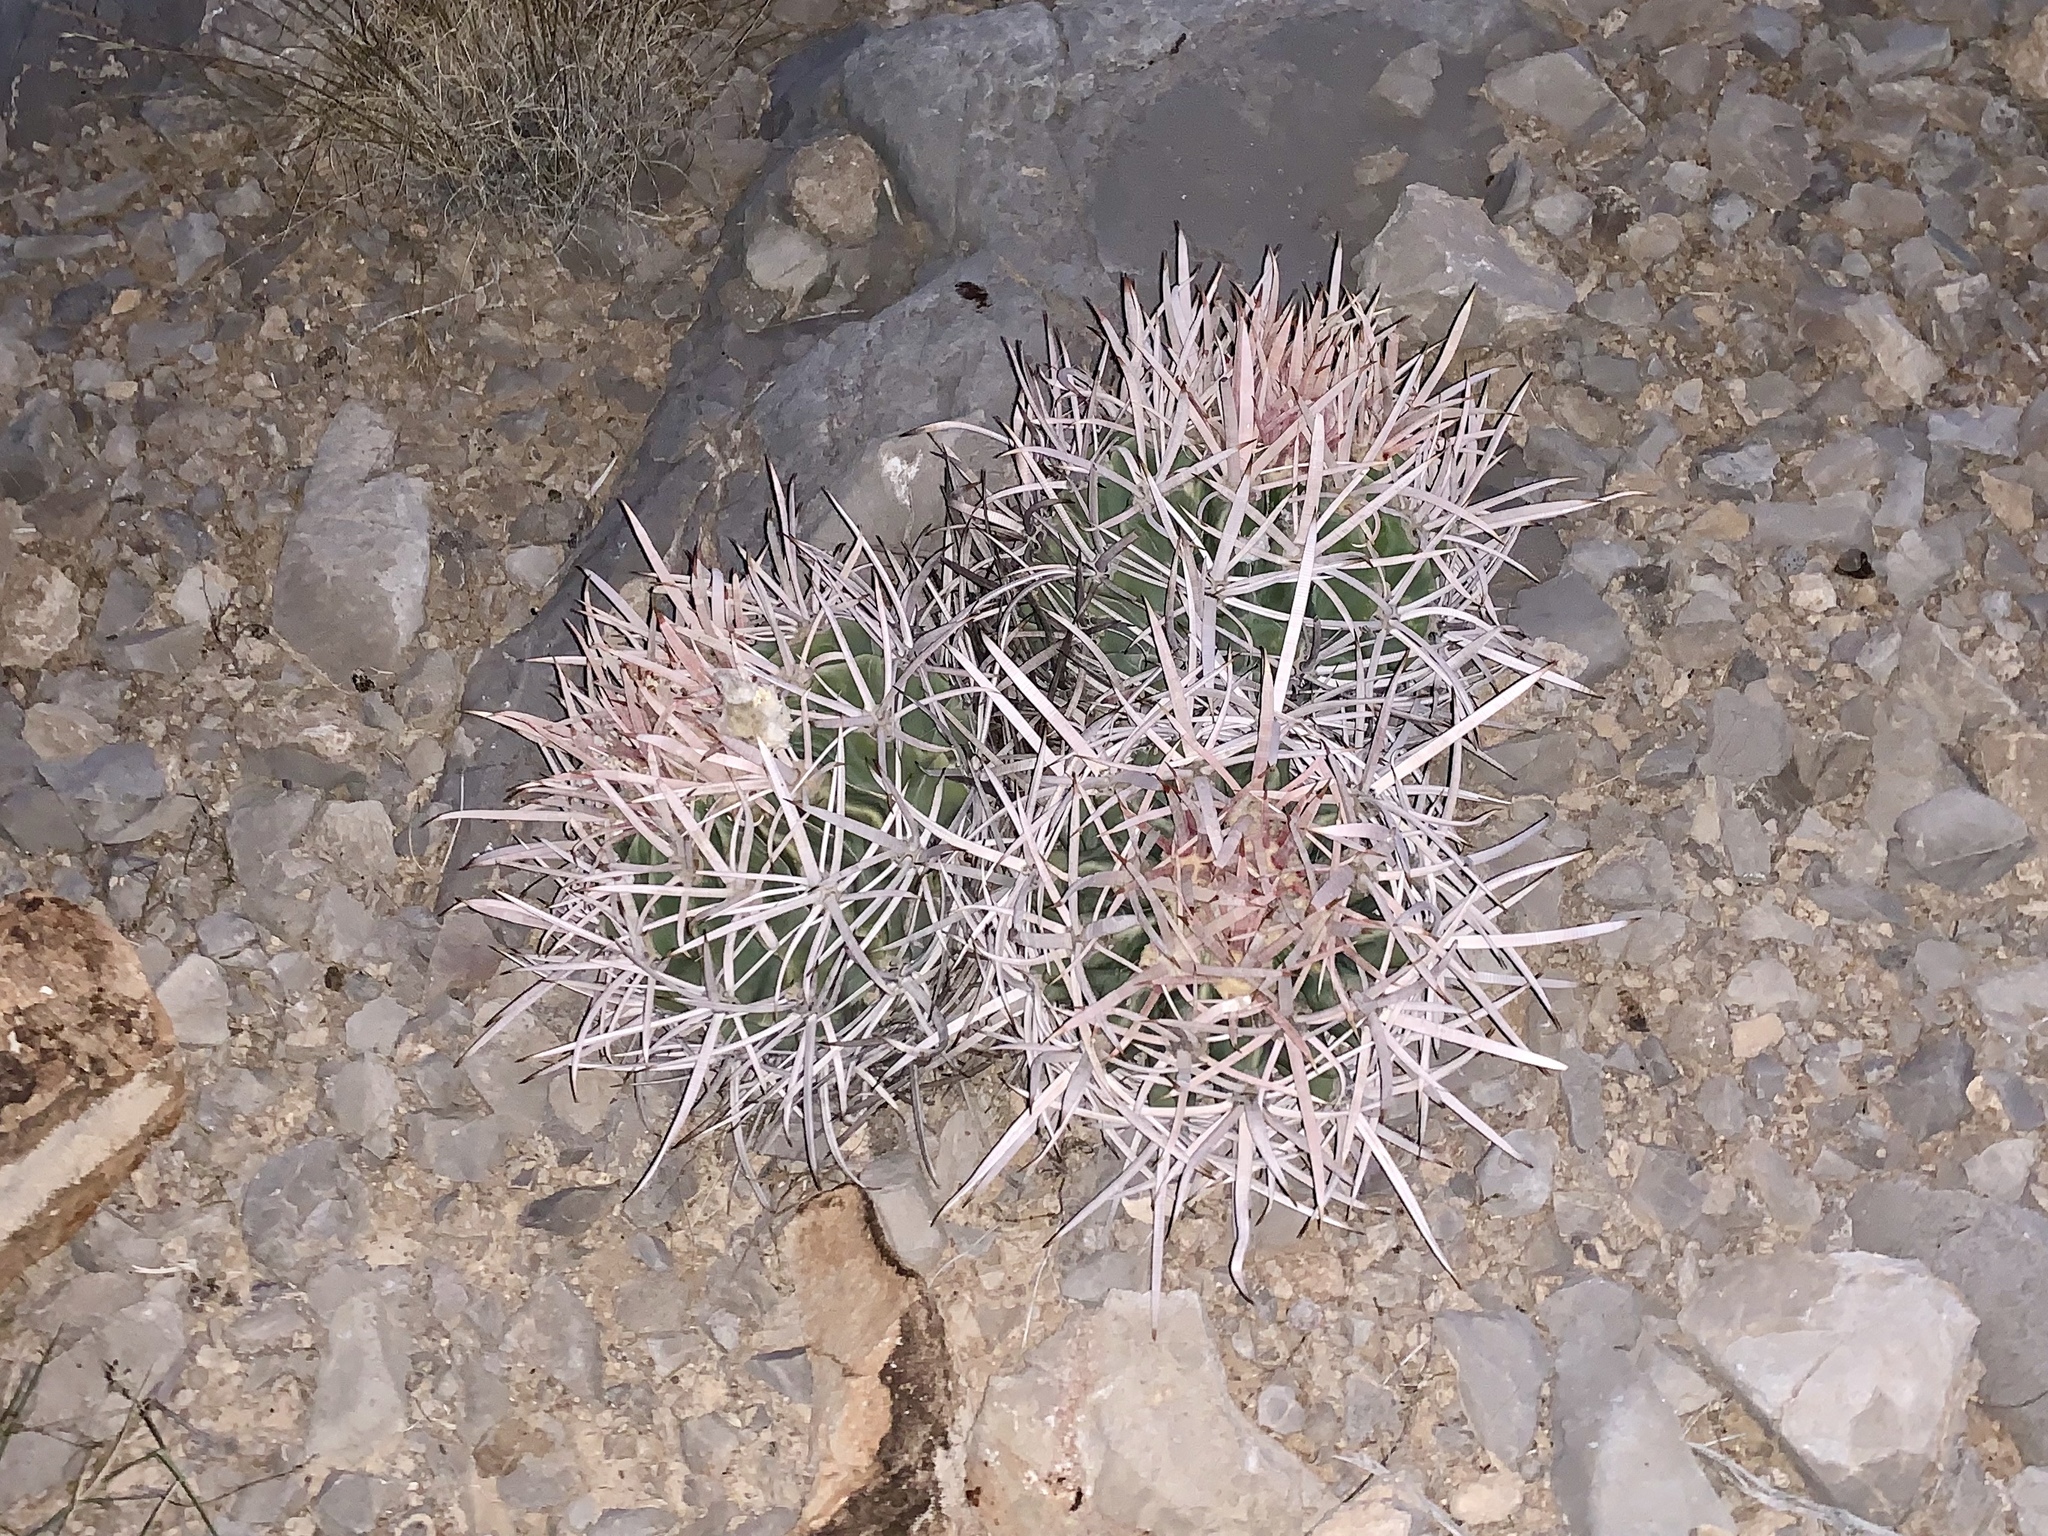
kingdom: Plantae
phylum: Tracheophyta
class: Magnoliopsida
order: Caryophyllales
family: Cactaceae
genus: Echinocactus
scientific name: Echinocactus polycephalus
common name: Cottontop cactus
